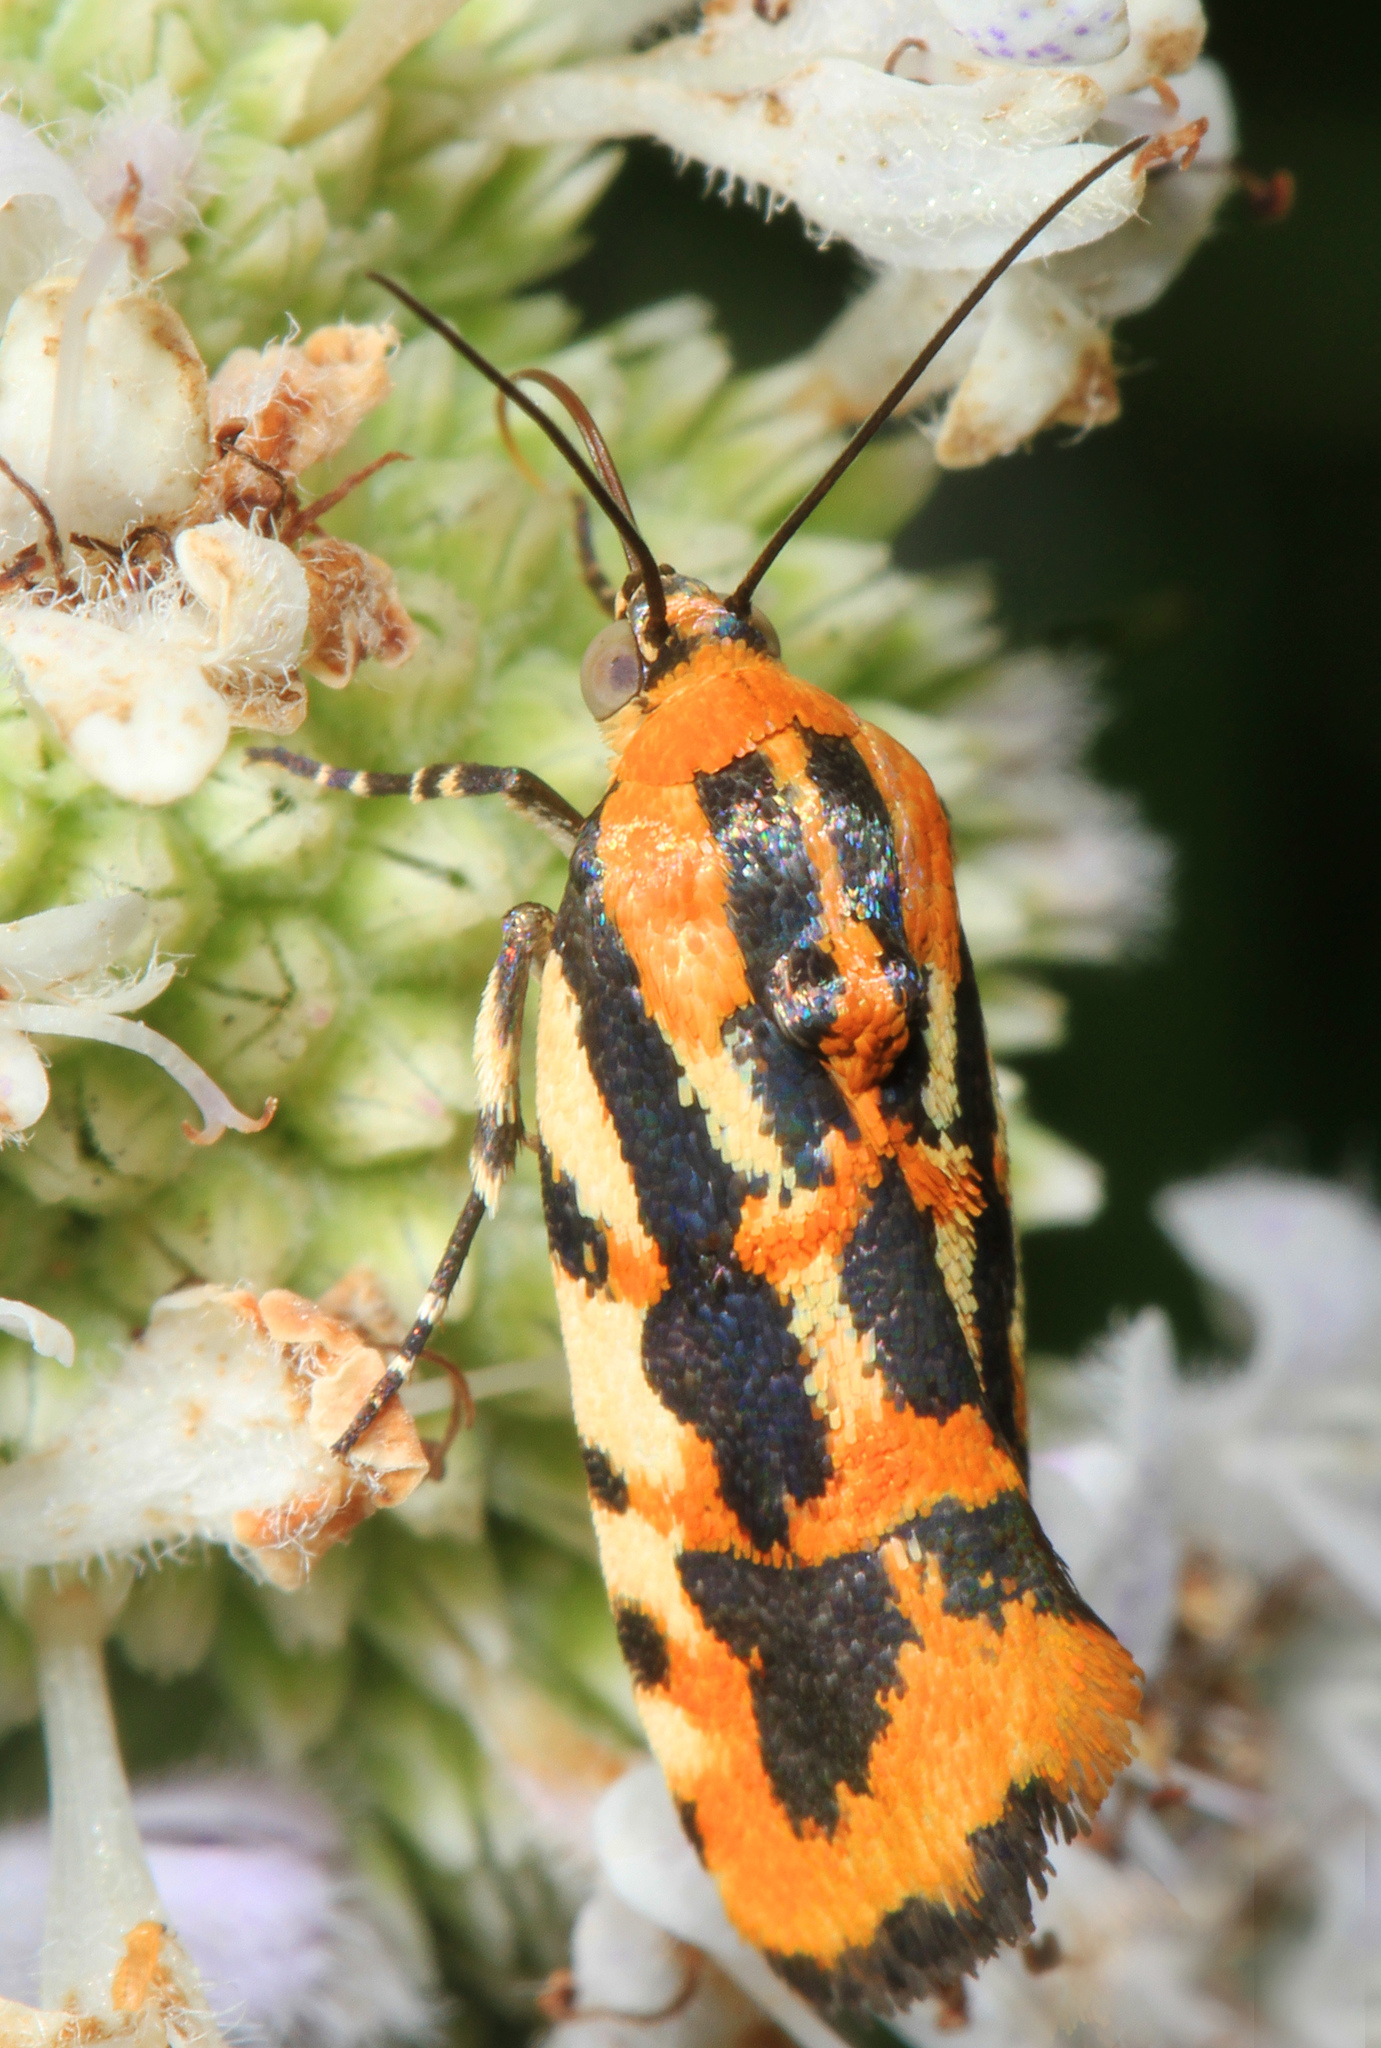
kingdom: Animalia
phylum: Arthropoda
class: Insecta
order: Lepidoptera
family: Noctuidae
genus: Acontia
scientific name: Acontia leo
